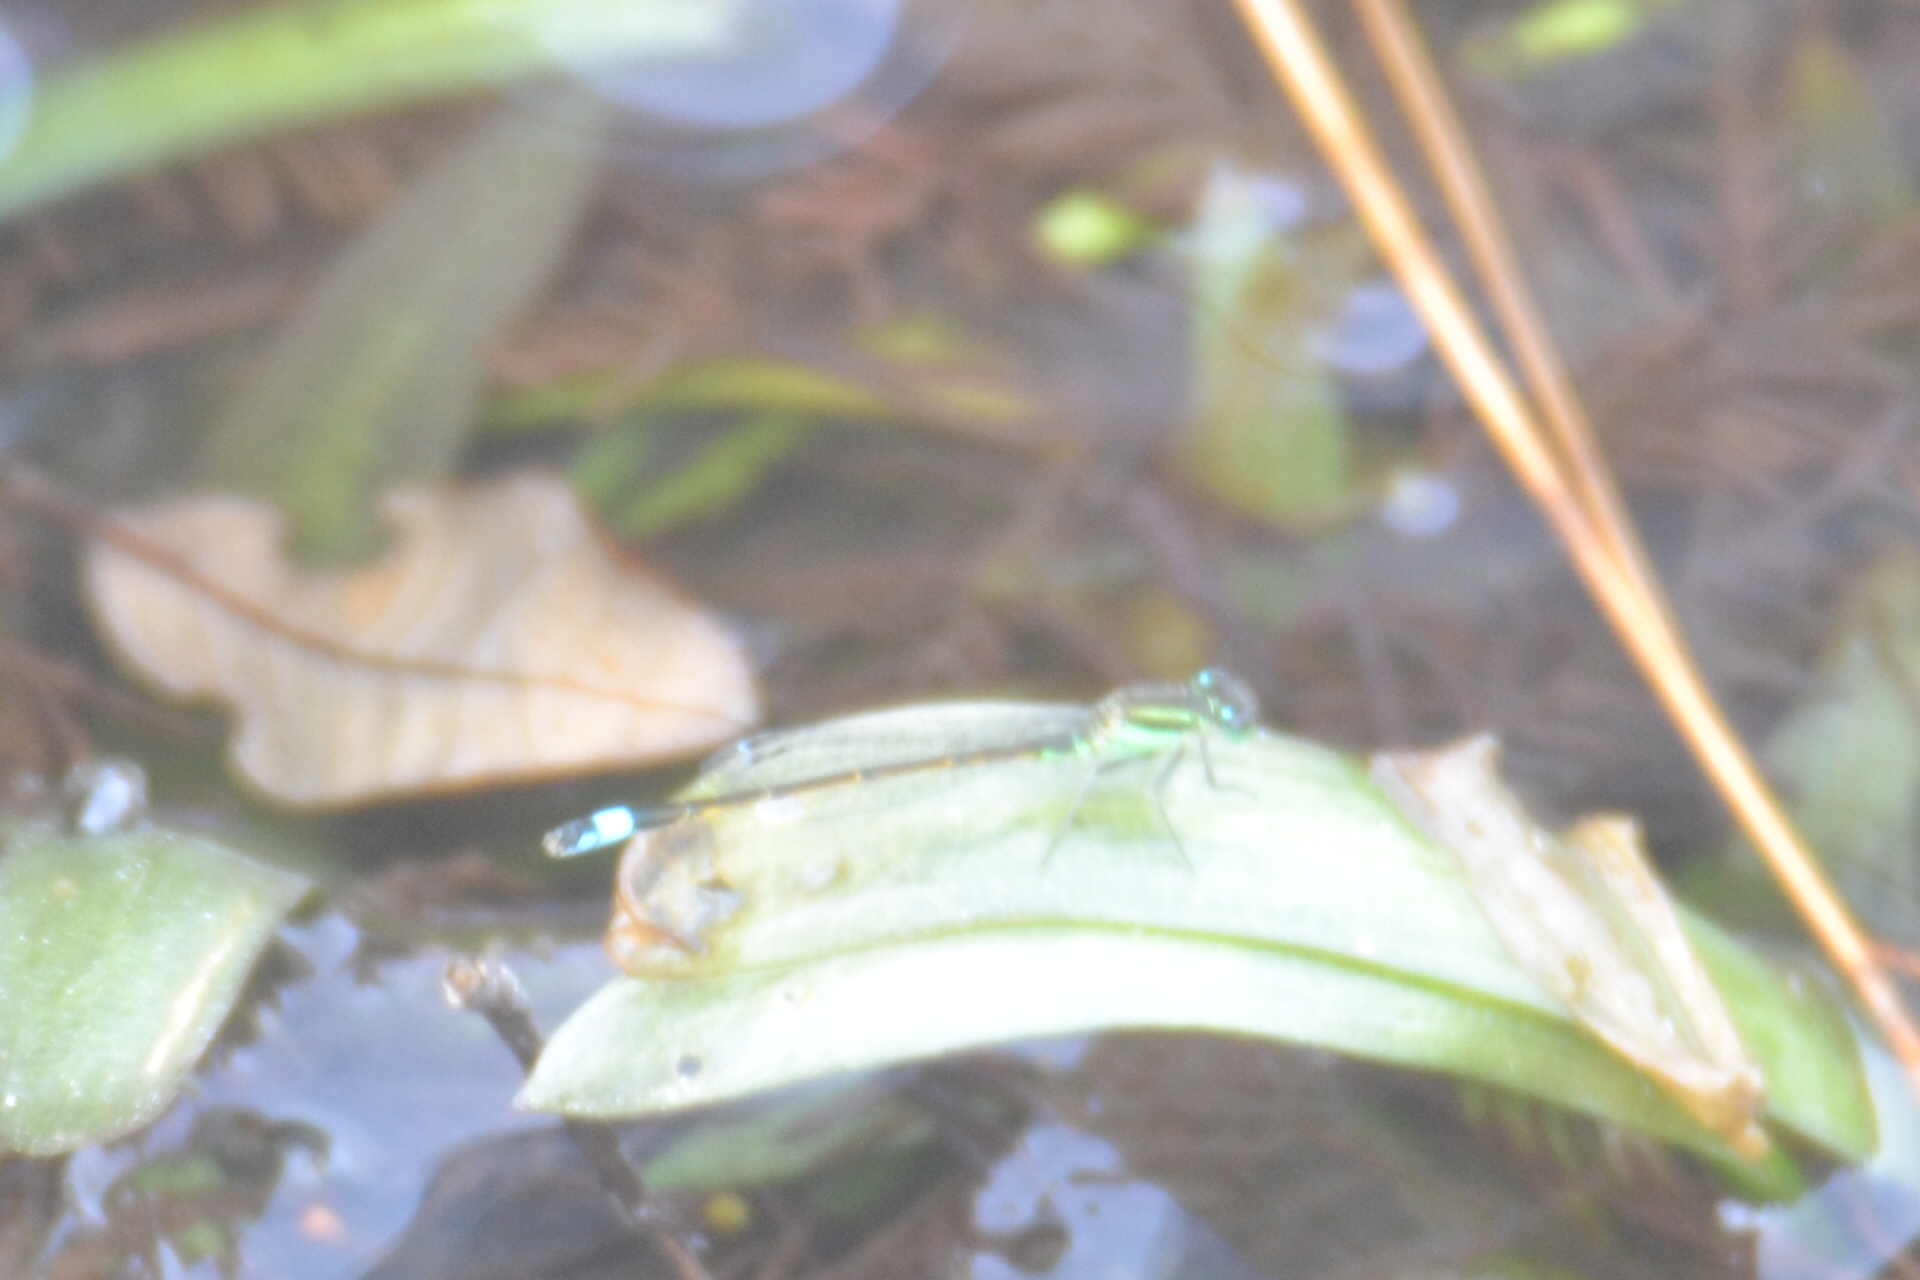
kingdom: Animalia
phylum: Arthropoda
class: Insecta
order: Odonata
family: Coenagrionidae
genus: Ischnura
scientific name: Ischnura ramburii
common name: Rambur's forktail
